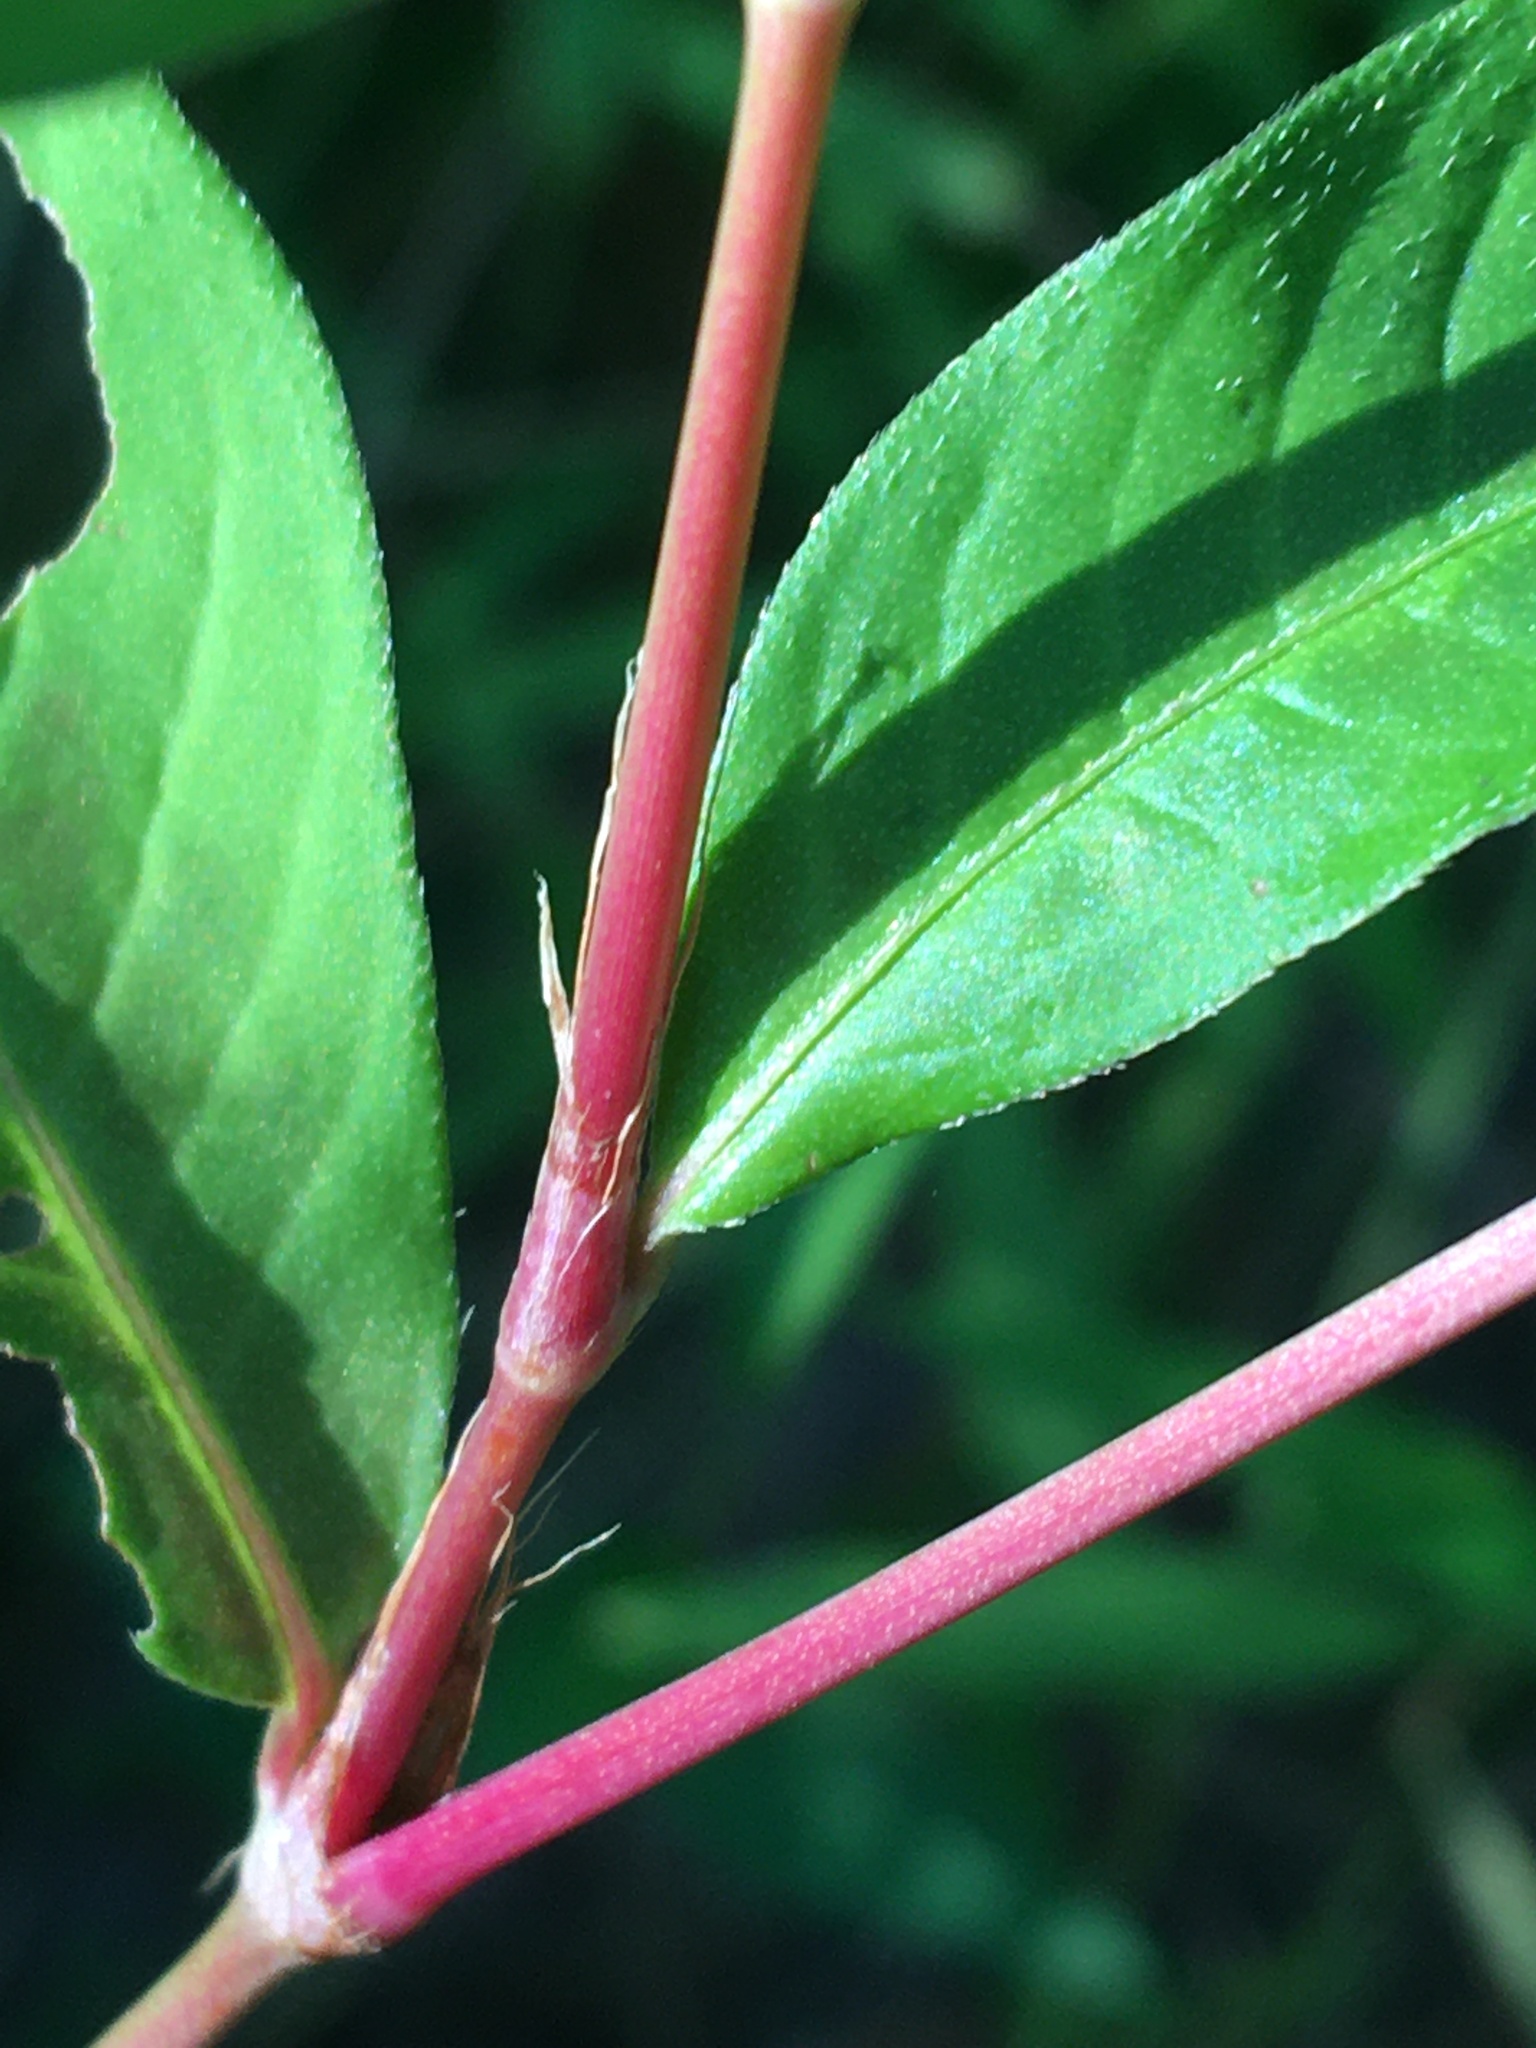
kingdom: Plantae
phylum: Tracheophyta
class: Magnoliopsida
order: Caryophyllales
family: Polygonaceae
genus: Persicaria
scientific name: Persicaria longiseta
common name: Bristly lady's-thumb
